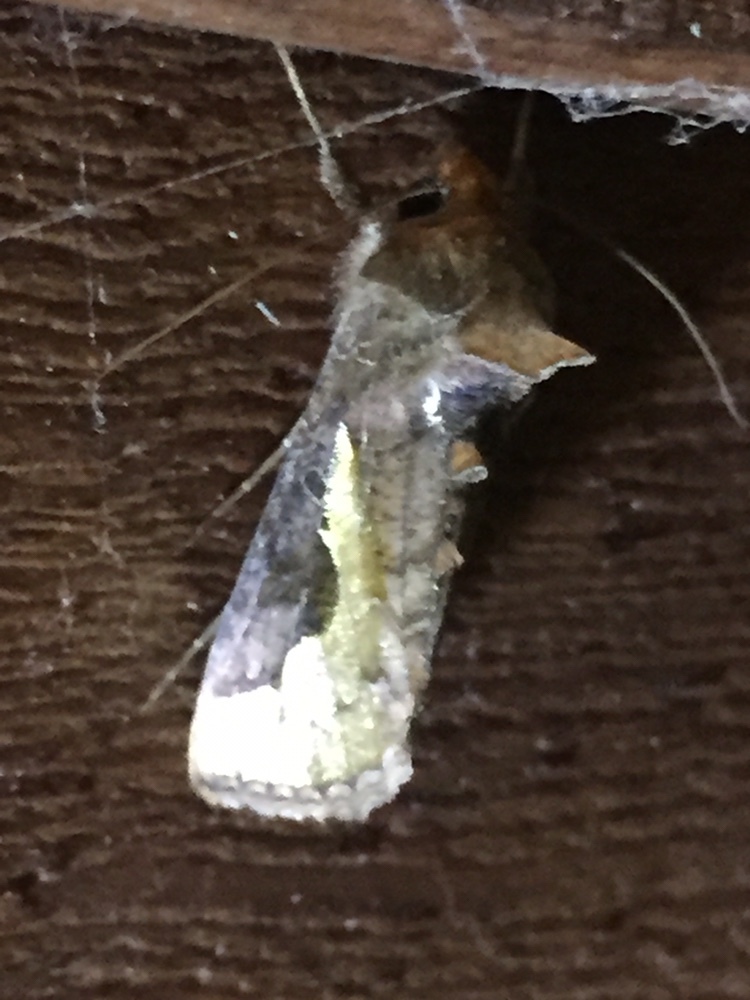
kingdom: Animalia
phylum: Arthropoda
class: Insecta
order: Lepidoptera
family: Noctuidae
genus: Thysanoplusia
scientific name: Thysanoplusia orichalcea
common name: Slender burnished brass, golden plusia
